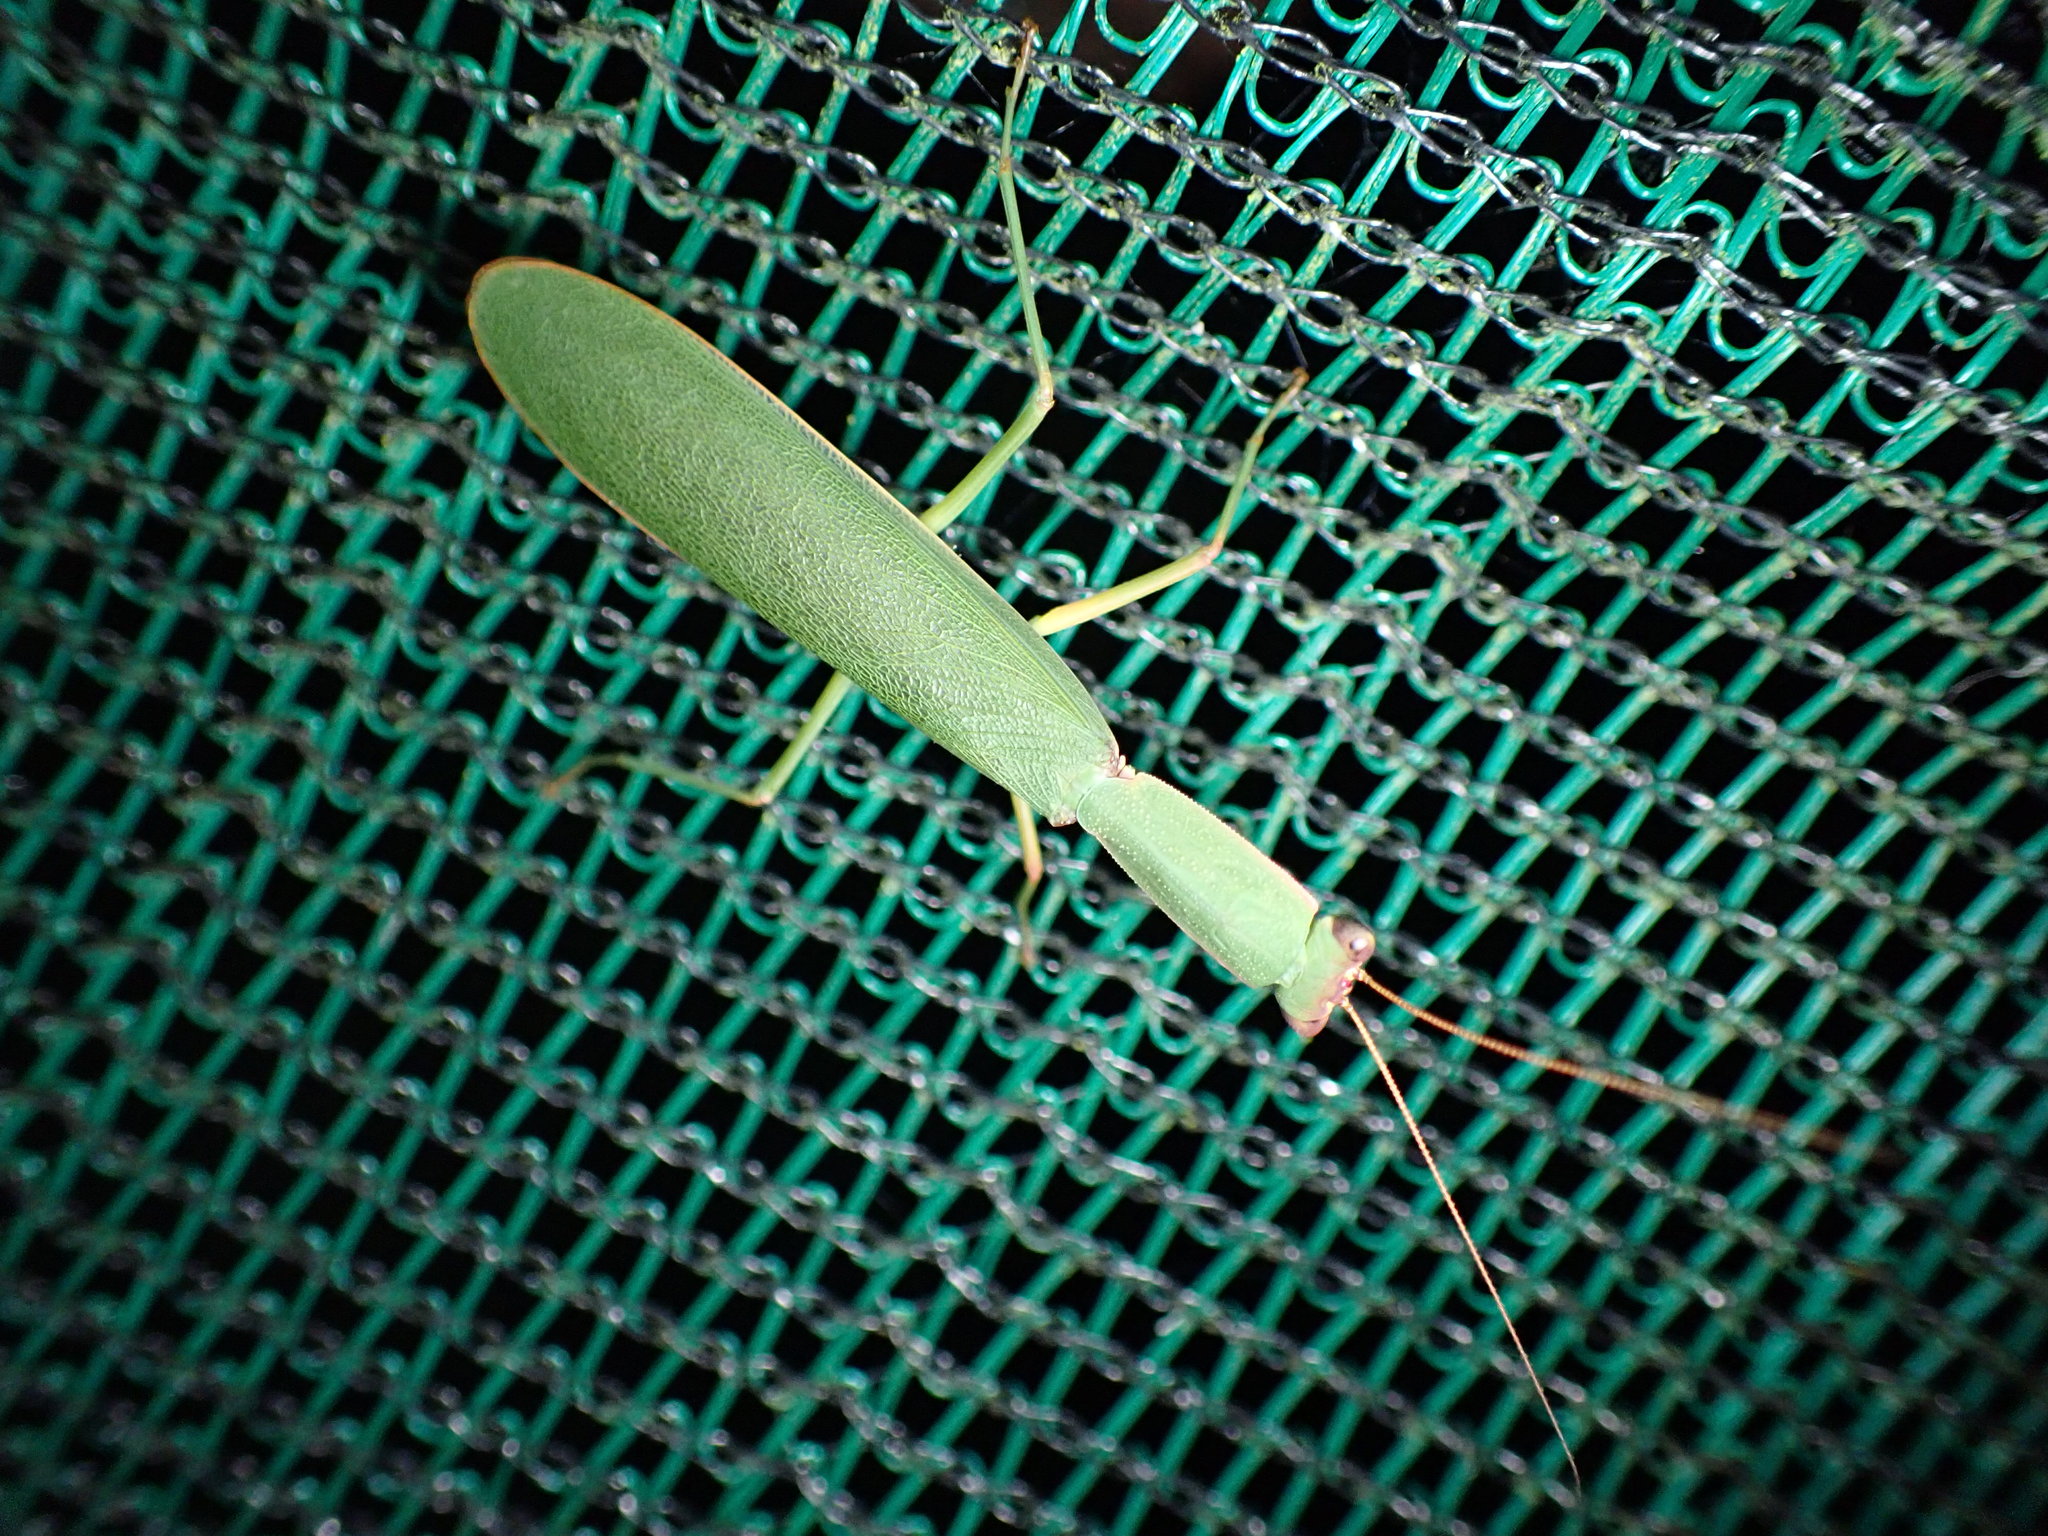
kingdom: Animalia
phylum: Arthropoda
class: Insecta
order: Mantodea
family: Mantidae
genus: Orthodera
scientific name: Orthodera novaezealandiae
